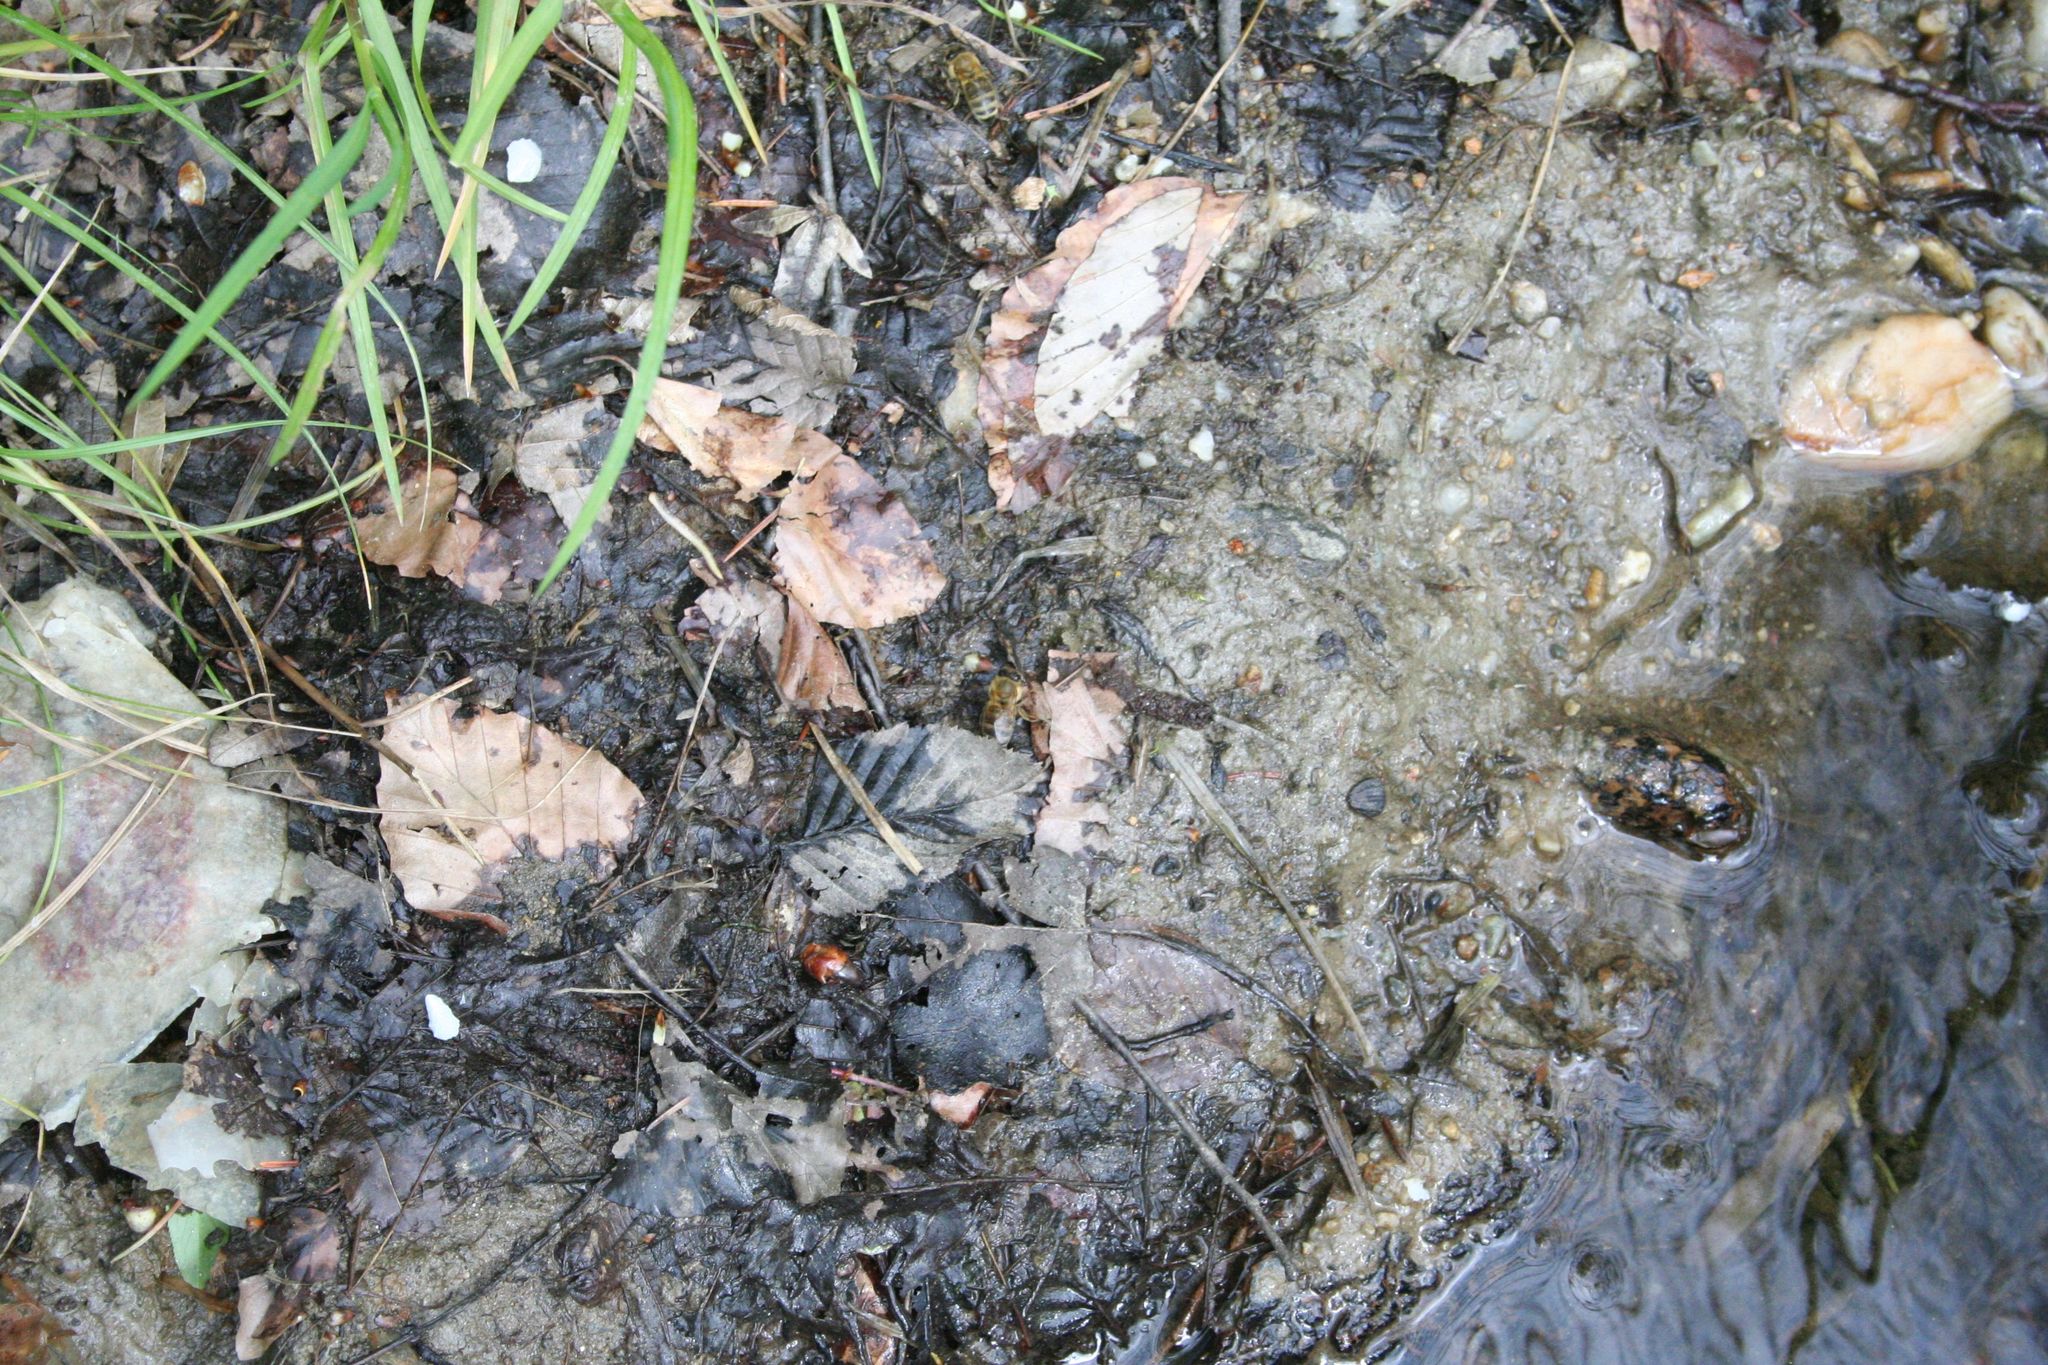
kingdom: Animalia
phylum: Arthropoda
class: Insecta
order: Hymenoptera
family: Apidae
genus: Apis
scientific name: Apis mellifera
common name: Honey bee
